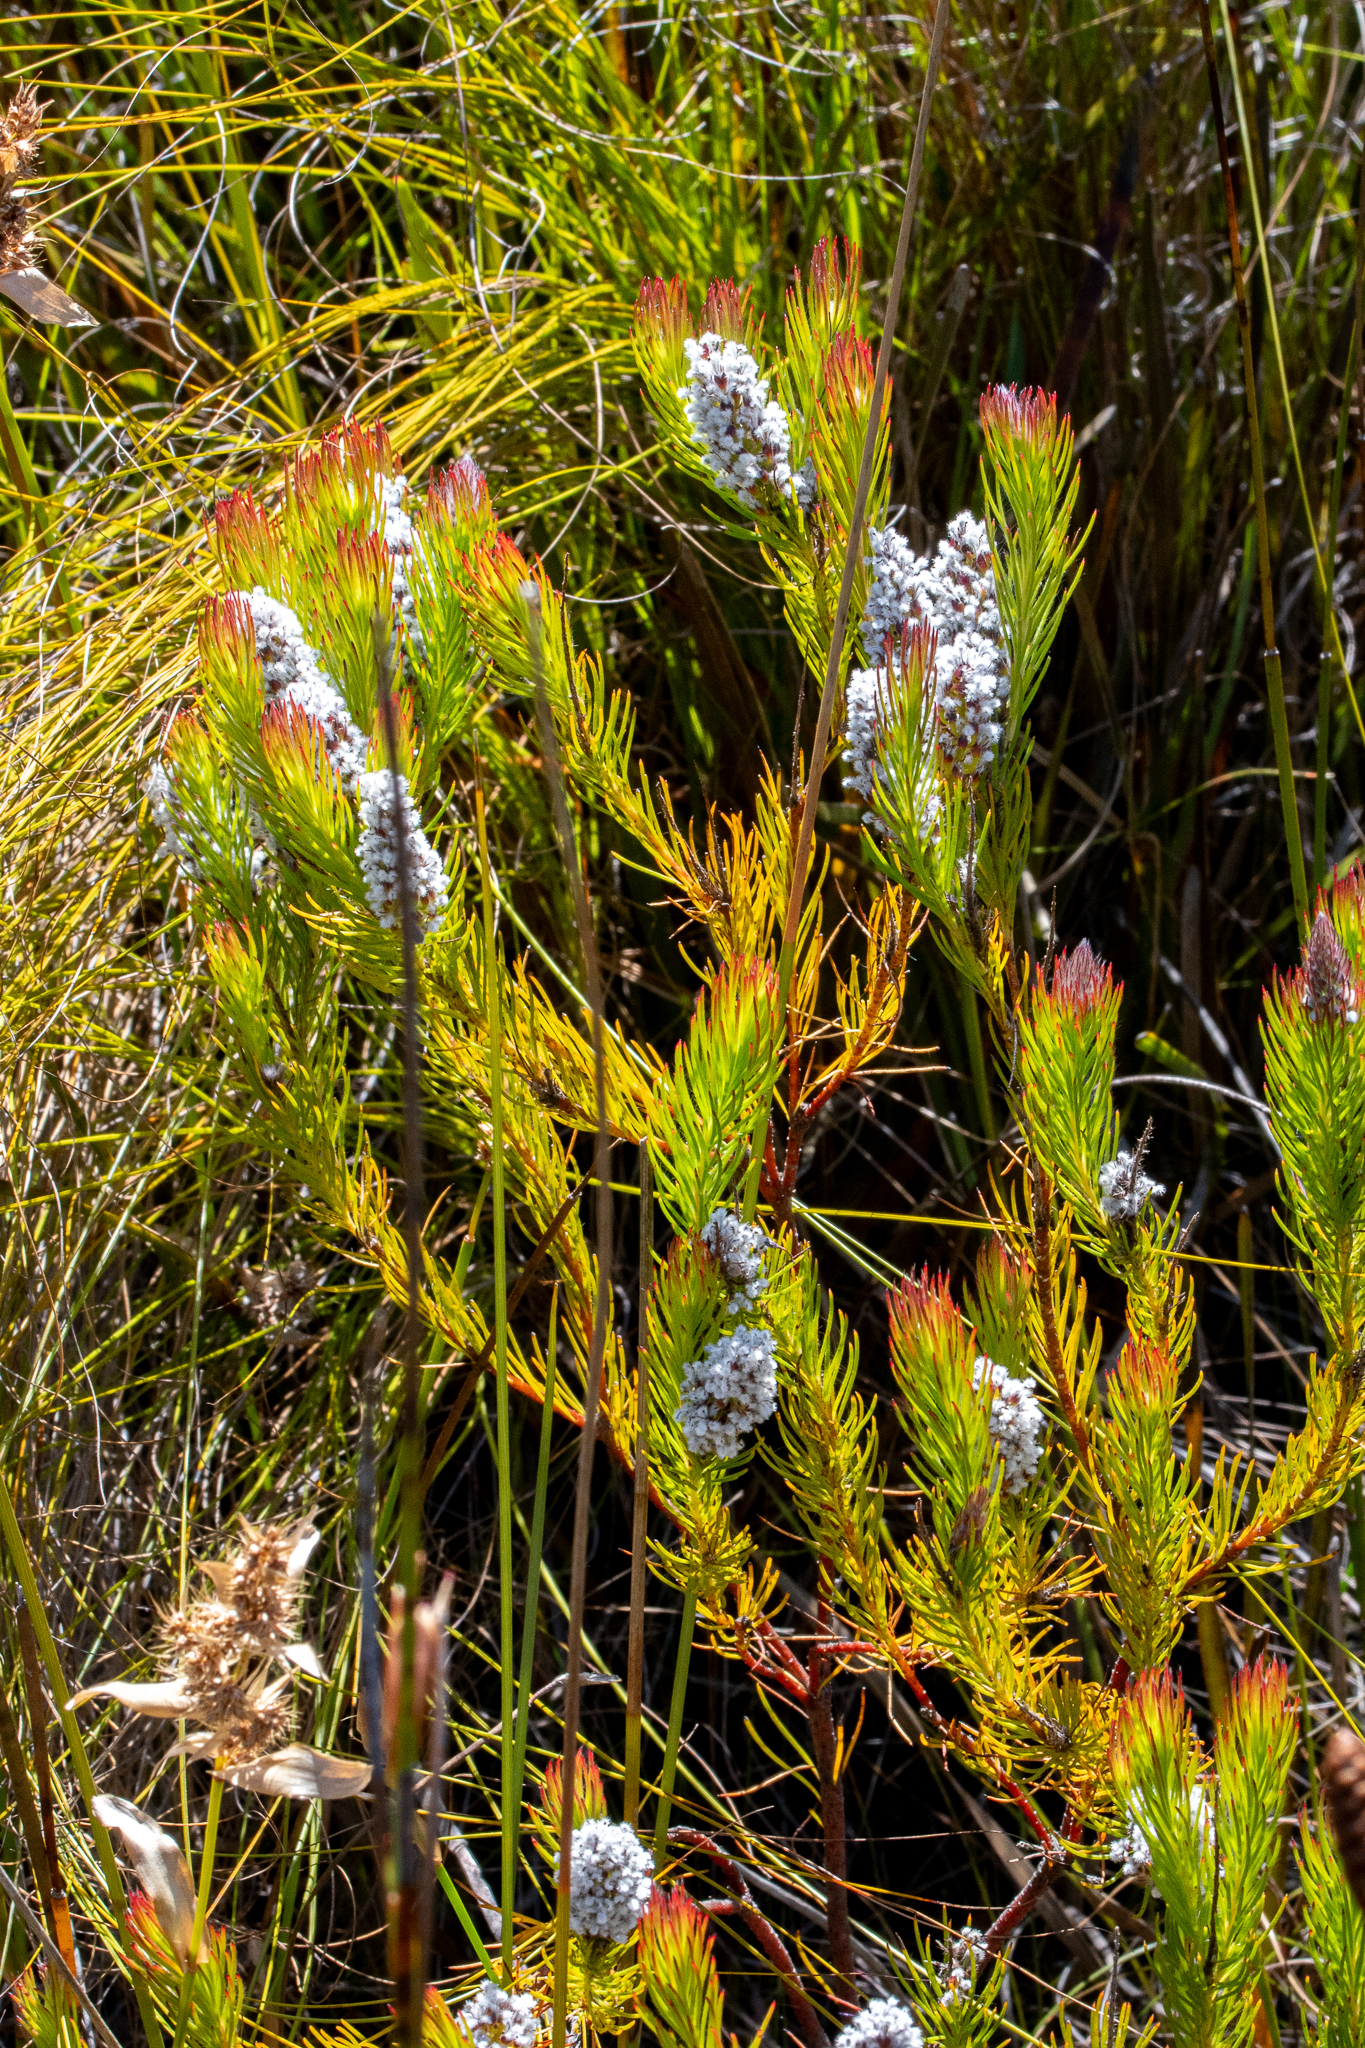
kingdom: Plantae
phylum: Tracheophyta
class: Magnoliopsida
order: Proteales
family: Proteaceae
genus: Spatalla
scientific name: Spatalla mollis
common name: Woolly spoon
